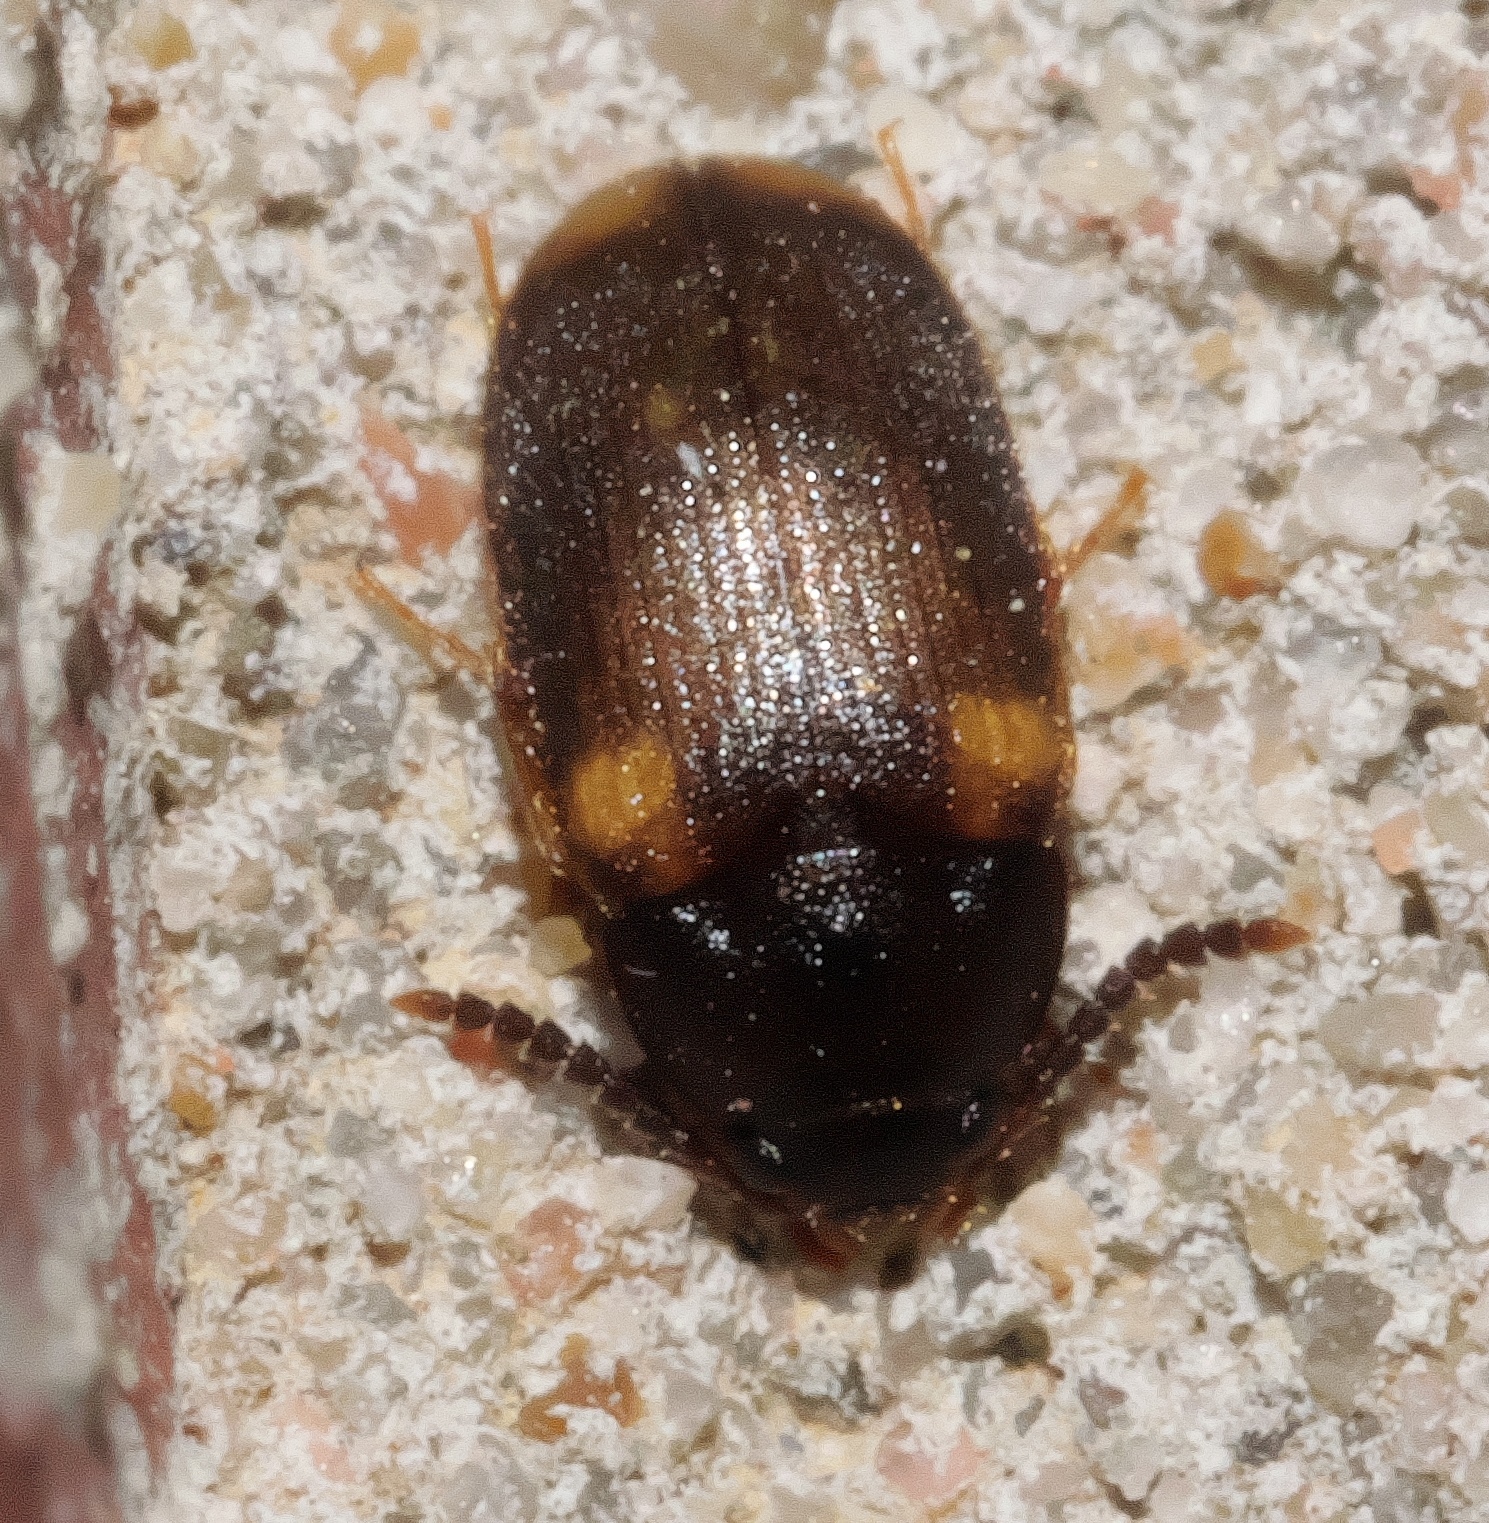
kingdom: Animalia
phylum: Arthropoda
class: Insecta
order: Coleoptera
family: Mycetophagidae
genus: Mycetophagus
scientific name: Mycetophagus serrulatus
